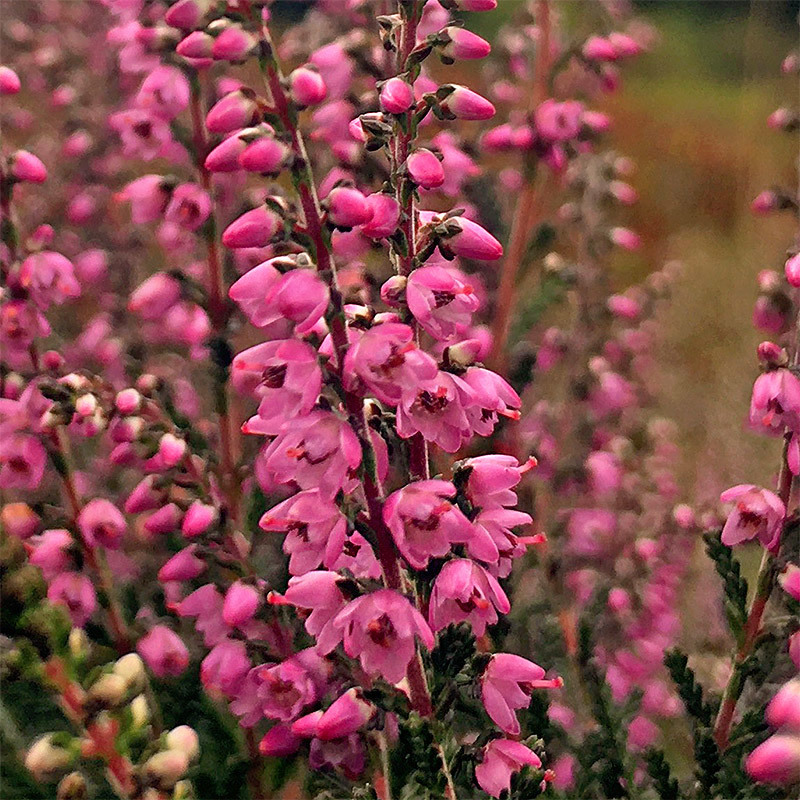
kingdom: Plantae
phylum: Tracheophyta
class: Magnoliopsida
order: Ericales
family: Ericaceae
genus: Calluna
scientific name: Calluna vulgaris
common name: Heather
